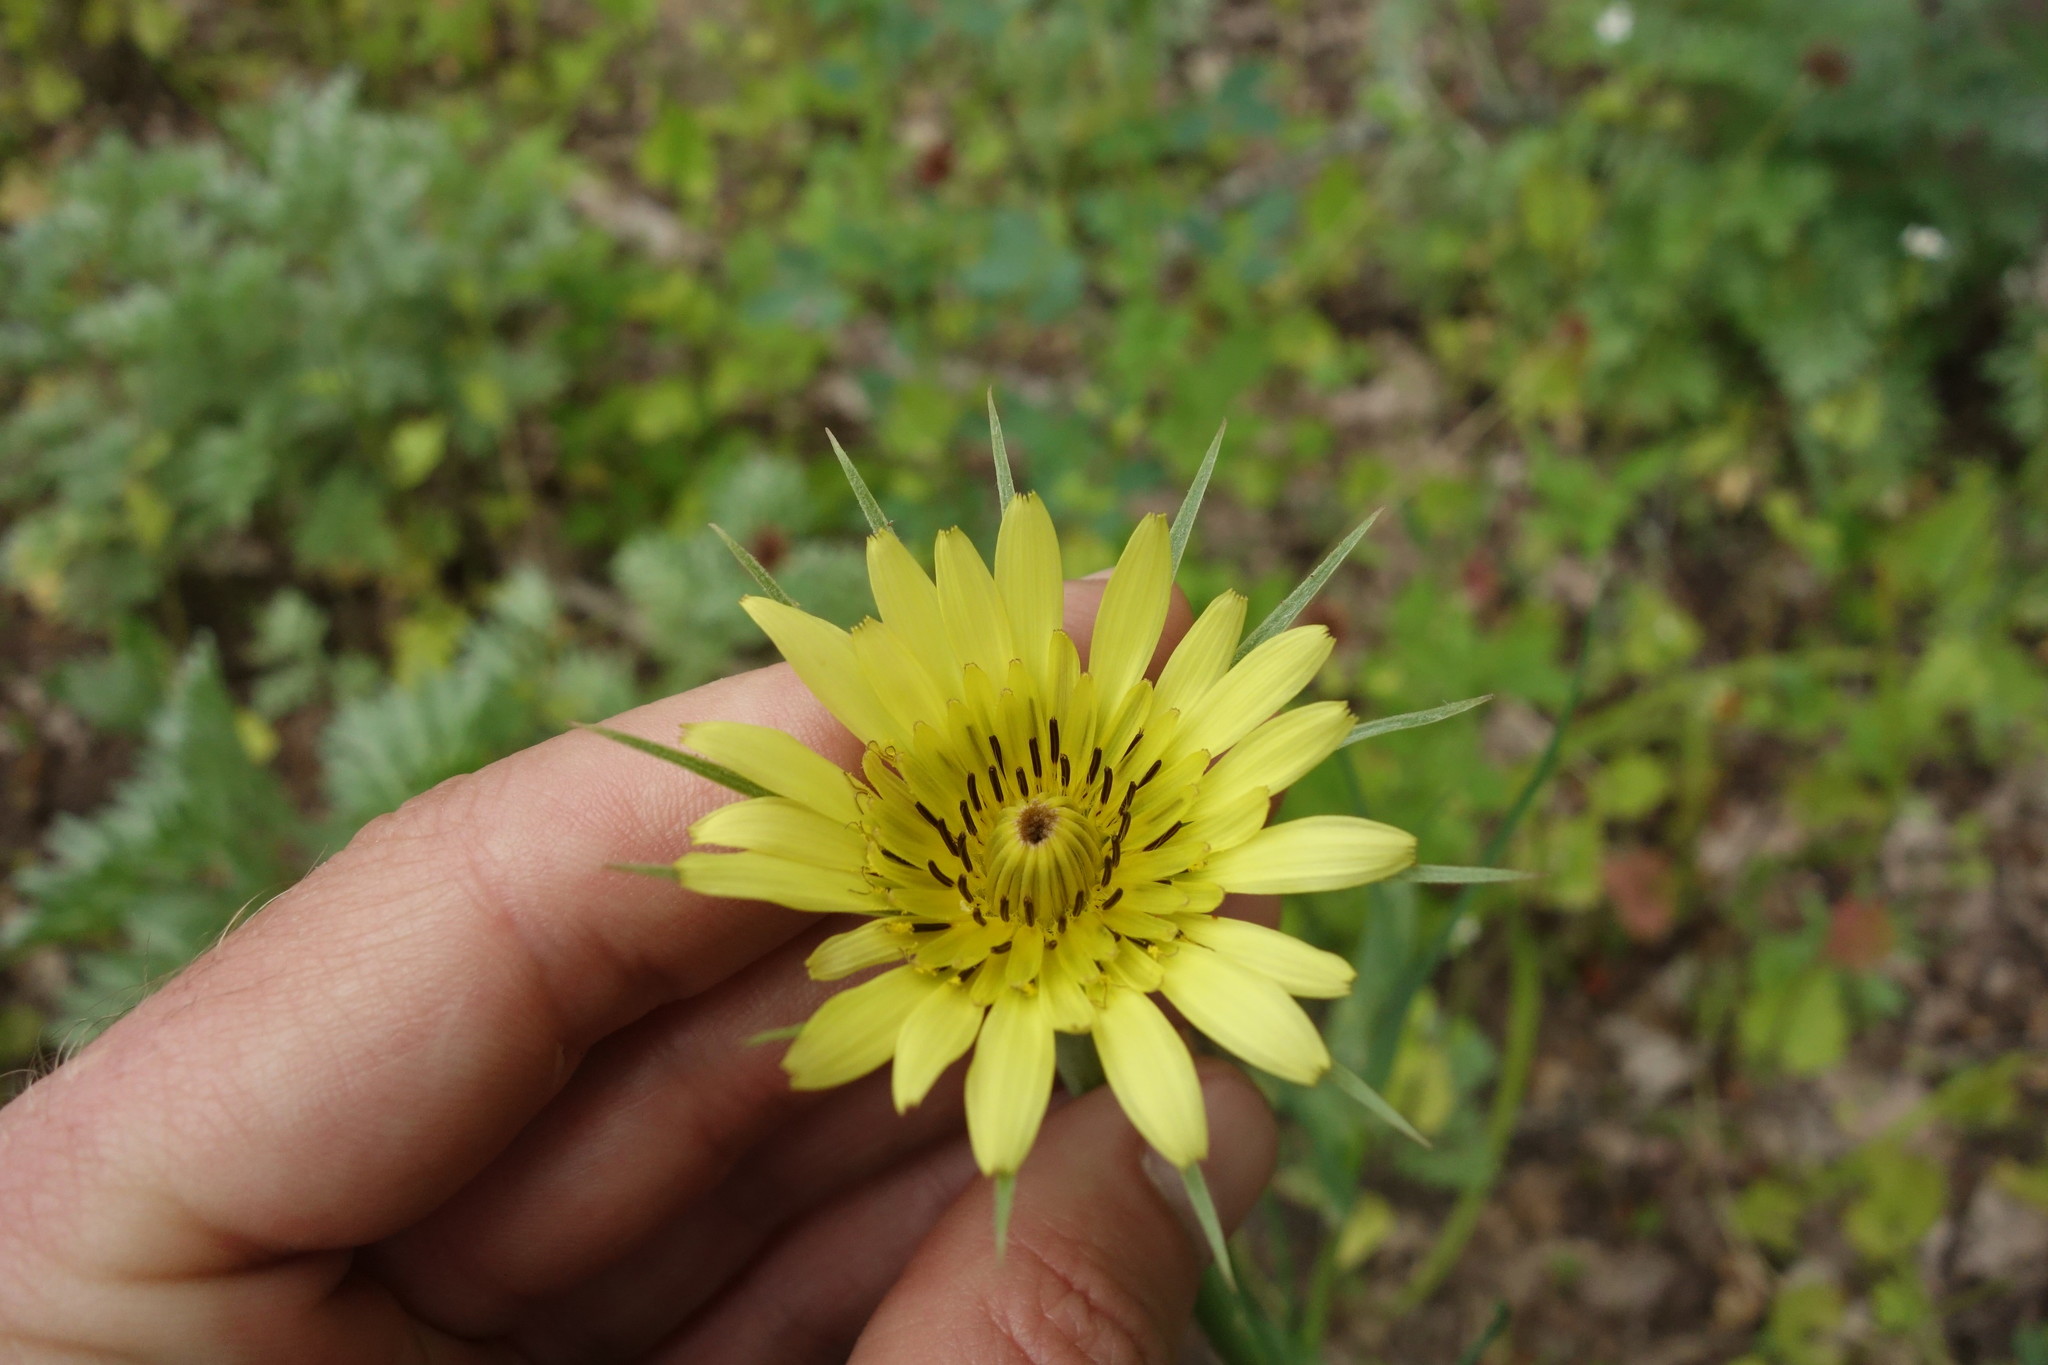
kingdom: Plantae
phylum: Tracheophyta
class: Magnoliopsida
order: Asterales
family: Asteraceae
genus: Tragopogon
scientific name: Tragopogon dubius
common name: Yellow salsify
